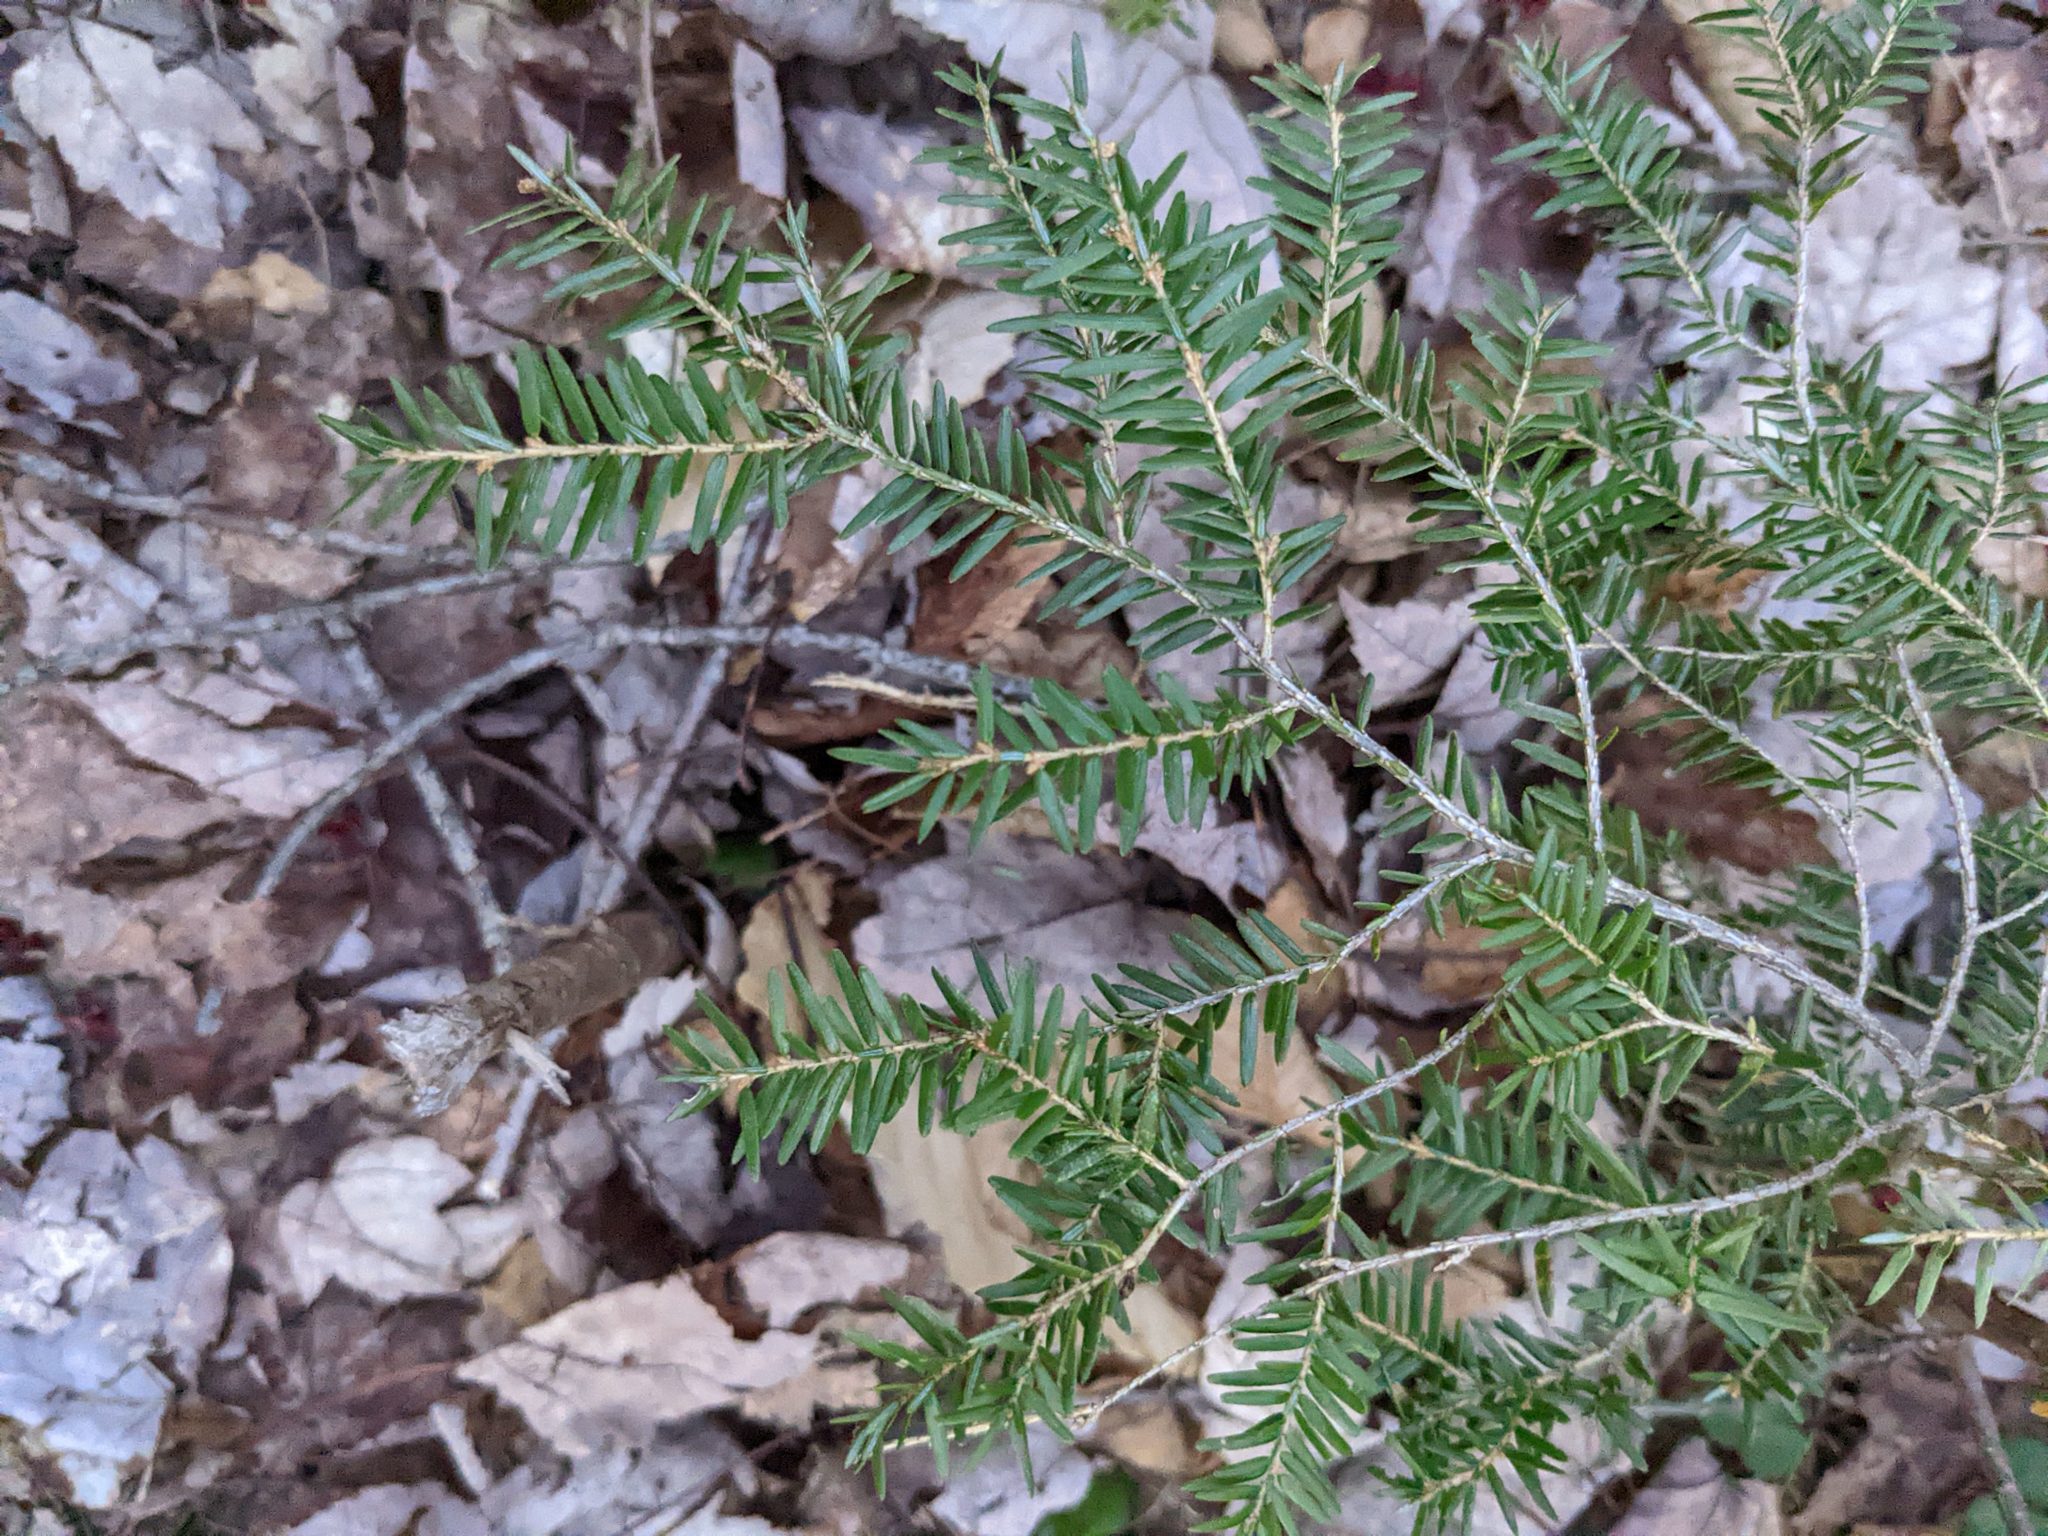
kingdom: Plantae
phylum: Tracheophyta
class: Pinopsida
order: Pinales
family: Pinaceae
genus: Tsuga
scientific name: Tsuga canadensis
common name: Eastern hemlock
